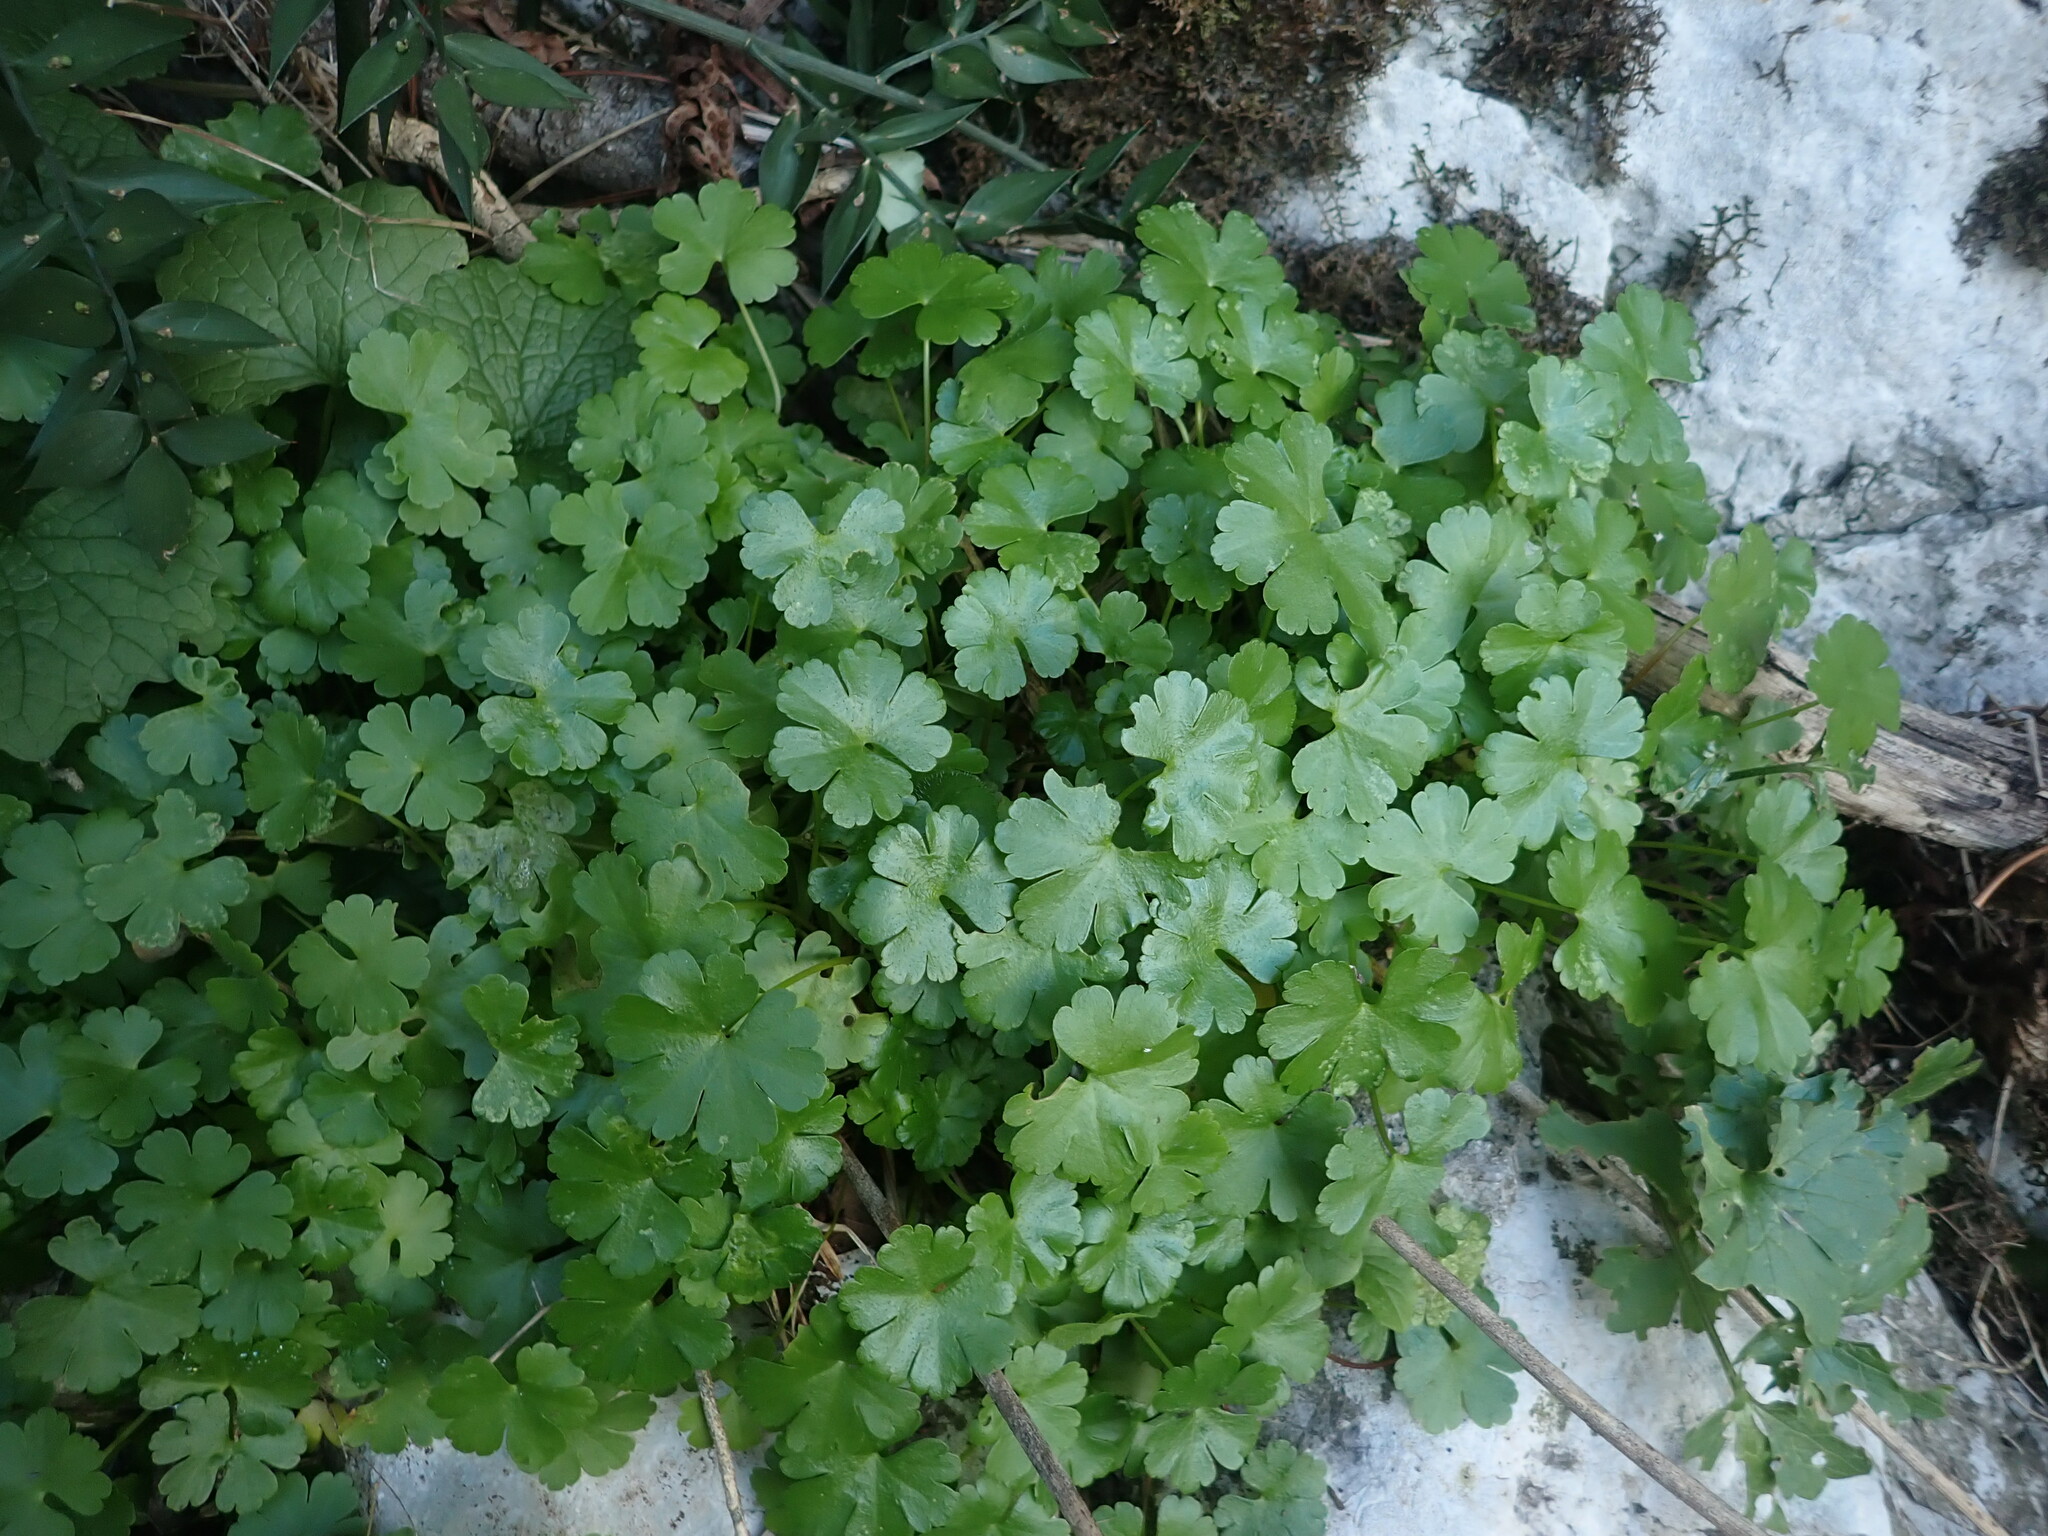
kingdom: Plantae
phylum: Tracheophyta
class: Magnoliopsida
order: Geraniales
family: Geraniaceae
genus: Geranium
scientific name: Geranium lucidum
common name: Shining crane's-bill
